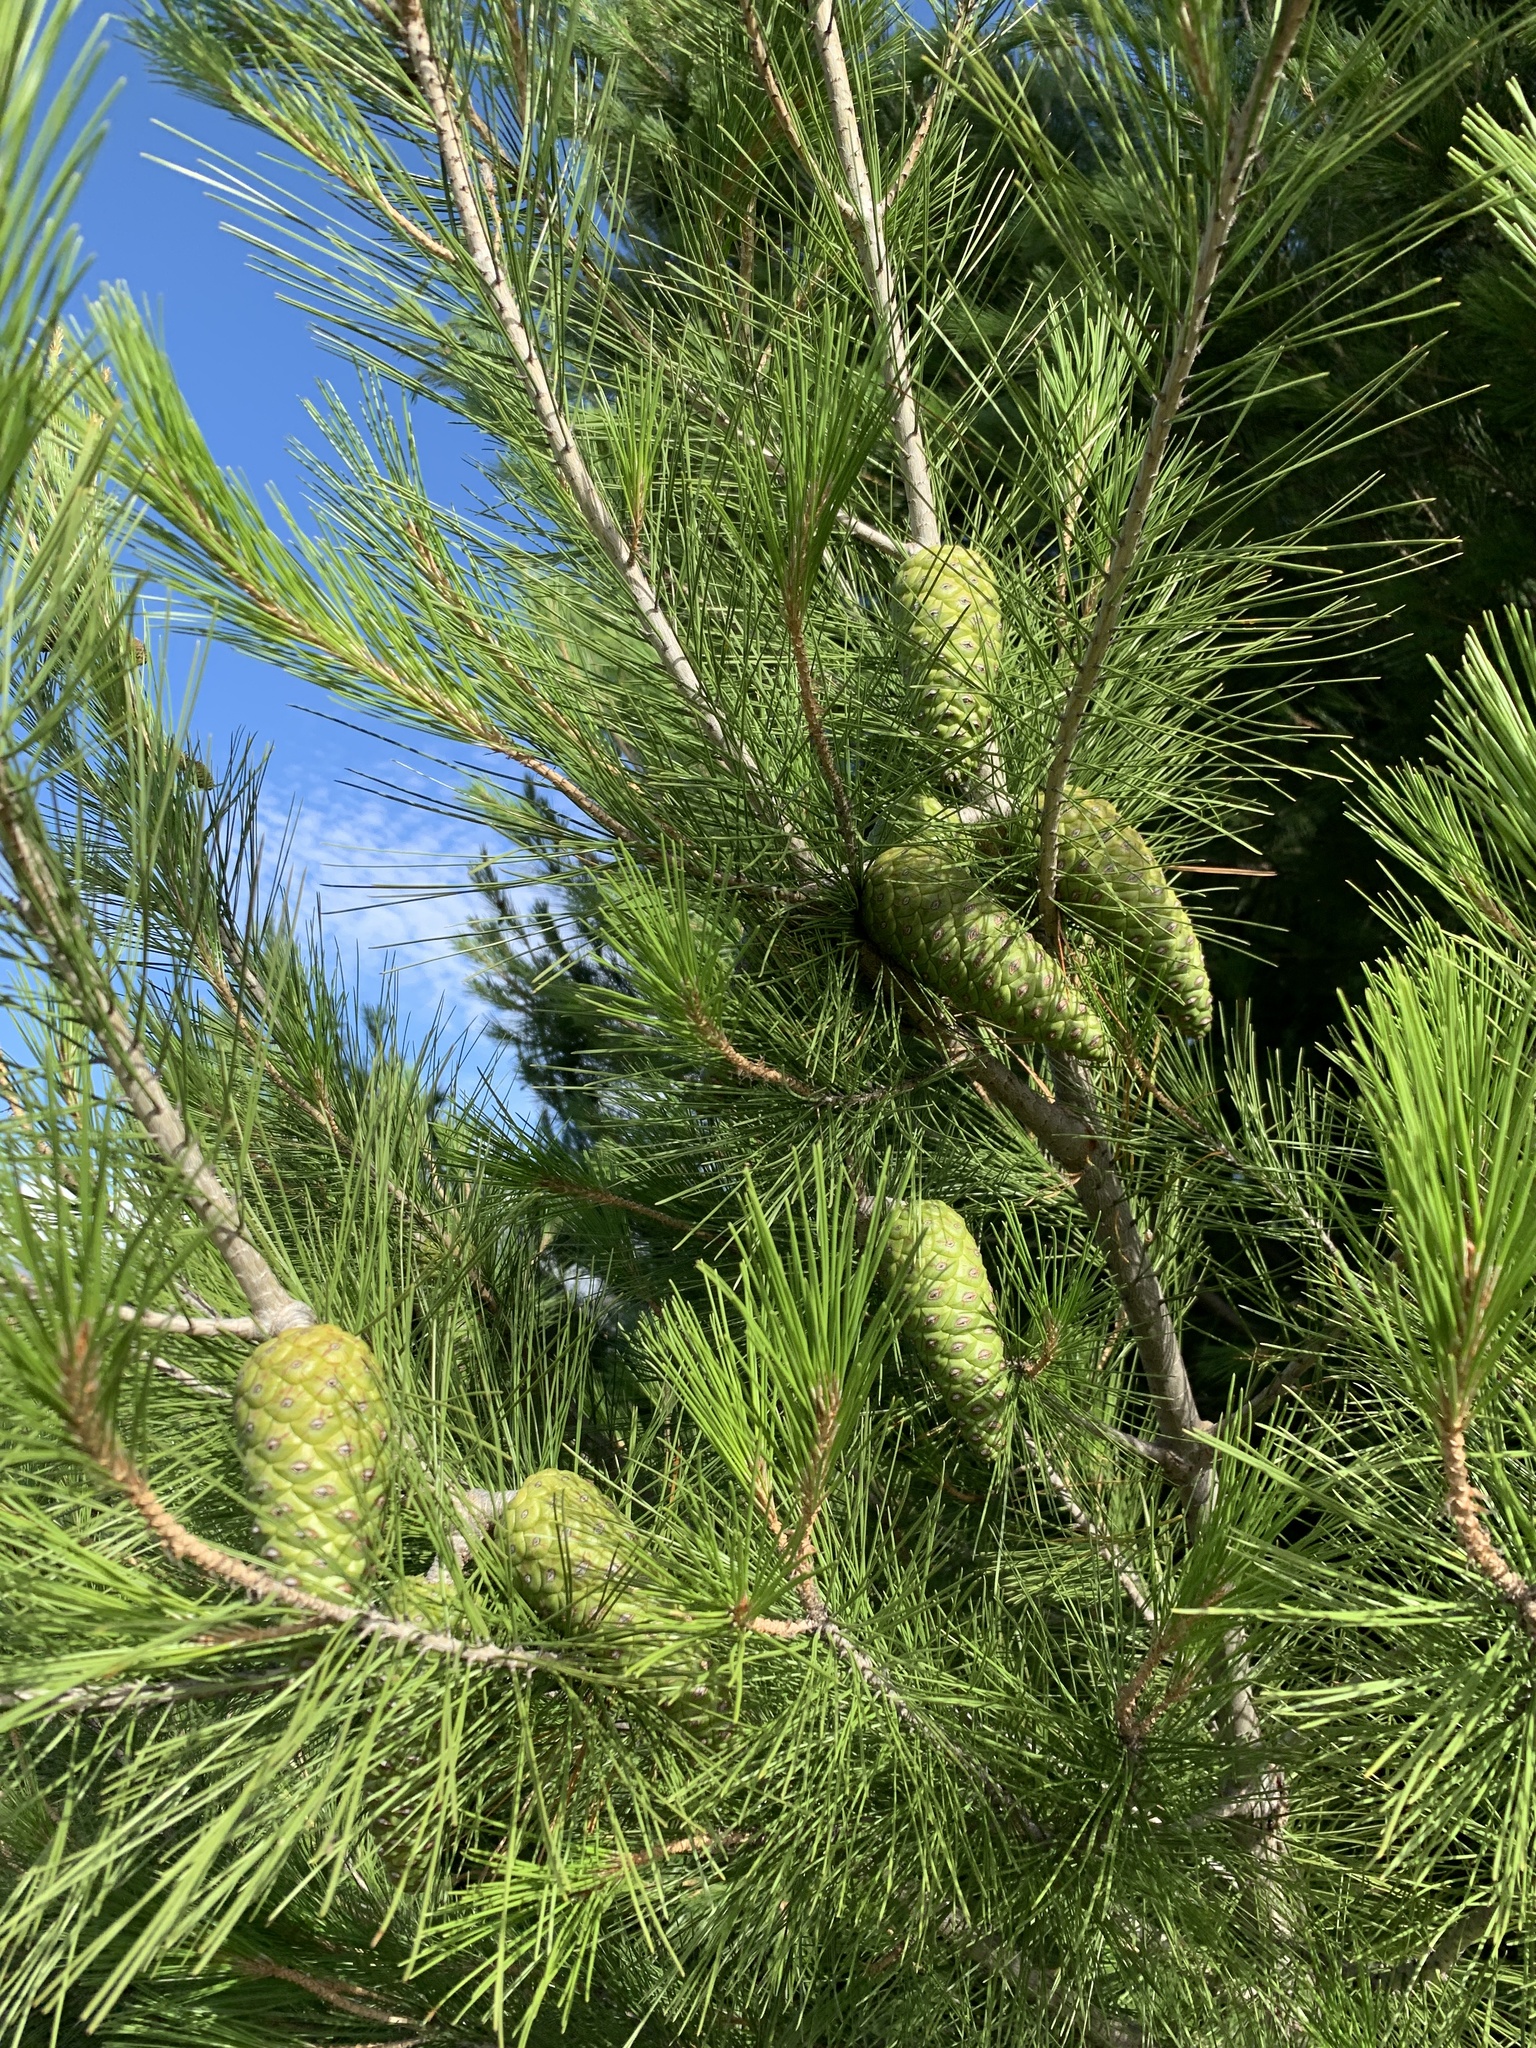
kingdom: Plantae
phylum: Tracheophyta
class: Pinopsida
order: Pinales
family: Pinaceae
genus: Pinus
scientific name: Pinus halepensis
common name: Aleppo pine
